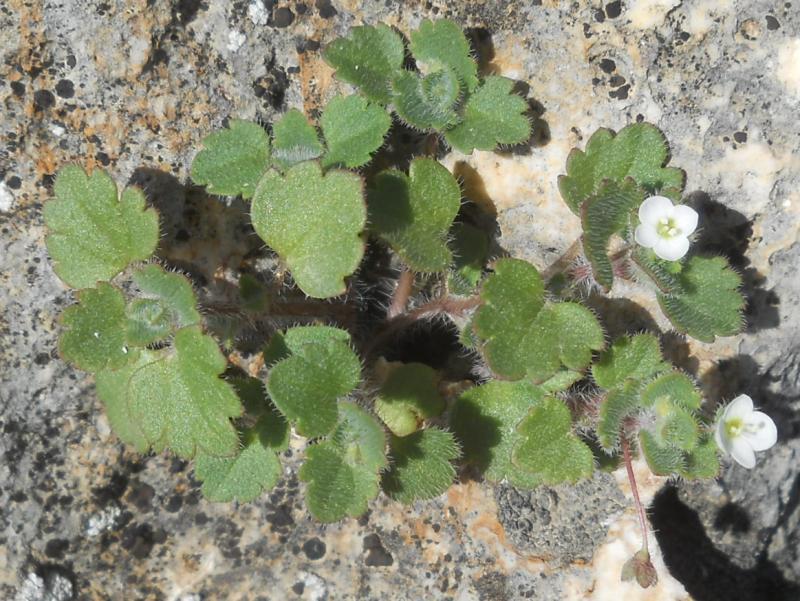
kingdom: Plantae
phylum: Tracheophyta
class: Magnoliopsida
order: Lamiales
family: Plantaginaceae
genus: Veronica
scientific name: Veronica cymbalaria
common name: Pale speedwell
